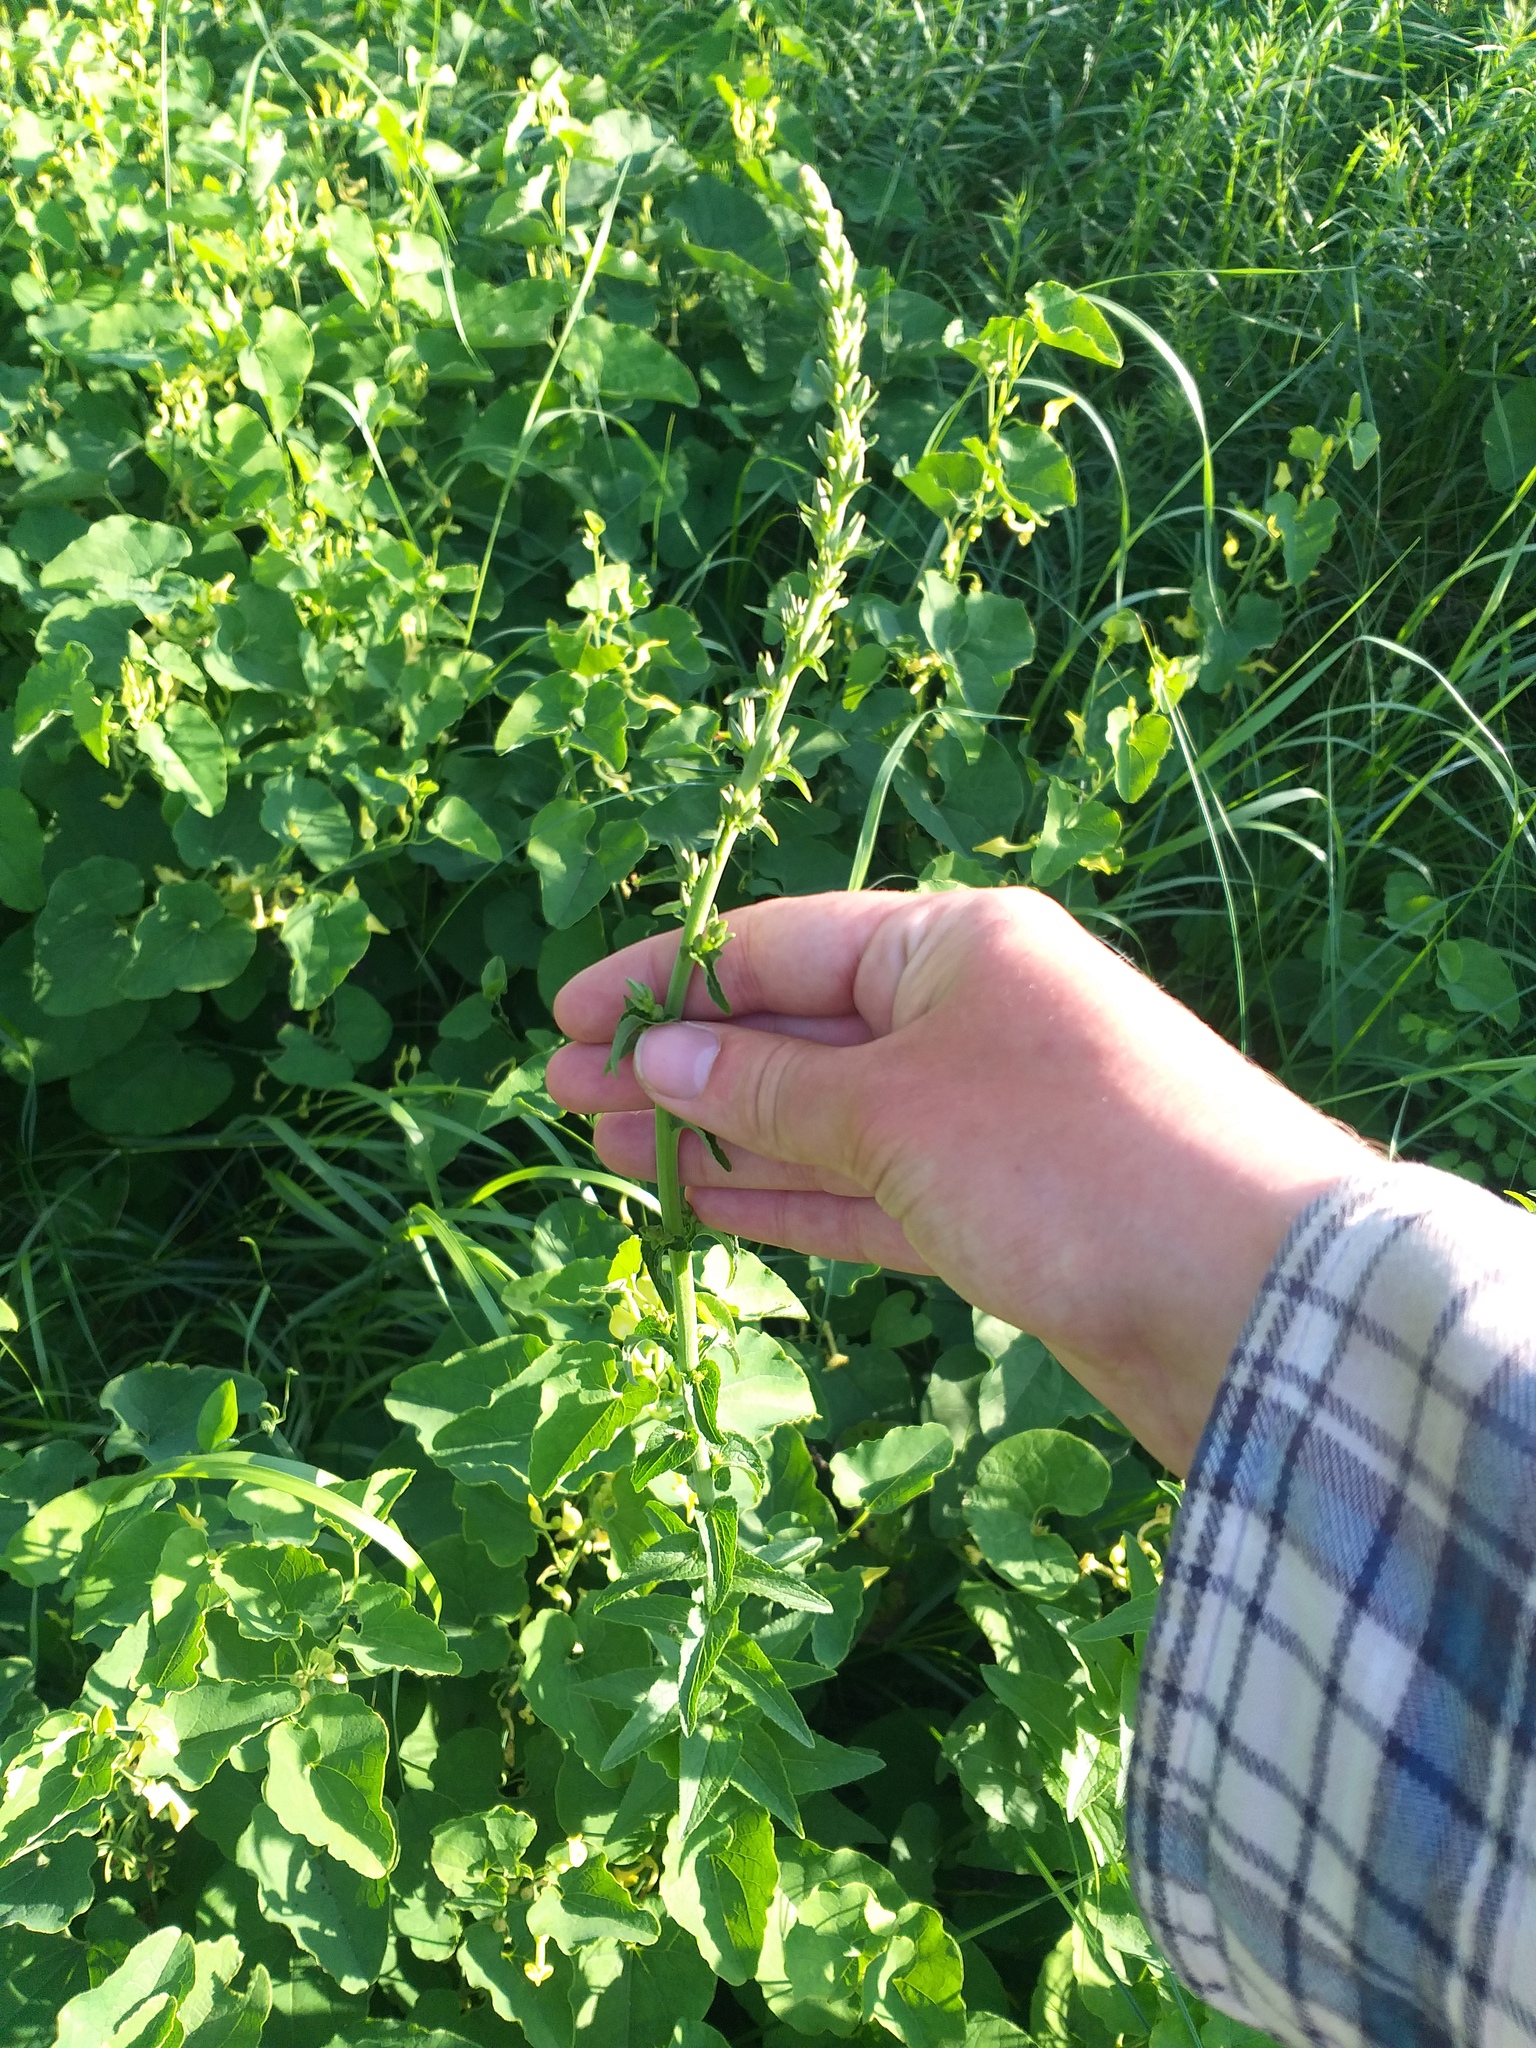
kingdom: Plantae
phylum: Tracheophyta
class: Magnoliopsida
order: Asterales
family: Campanulaceae
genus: Campanula
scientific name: Campanula bononiensis
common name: Pale bellflower
